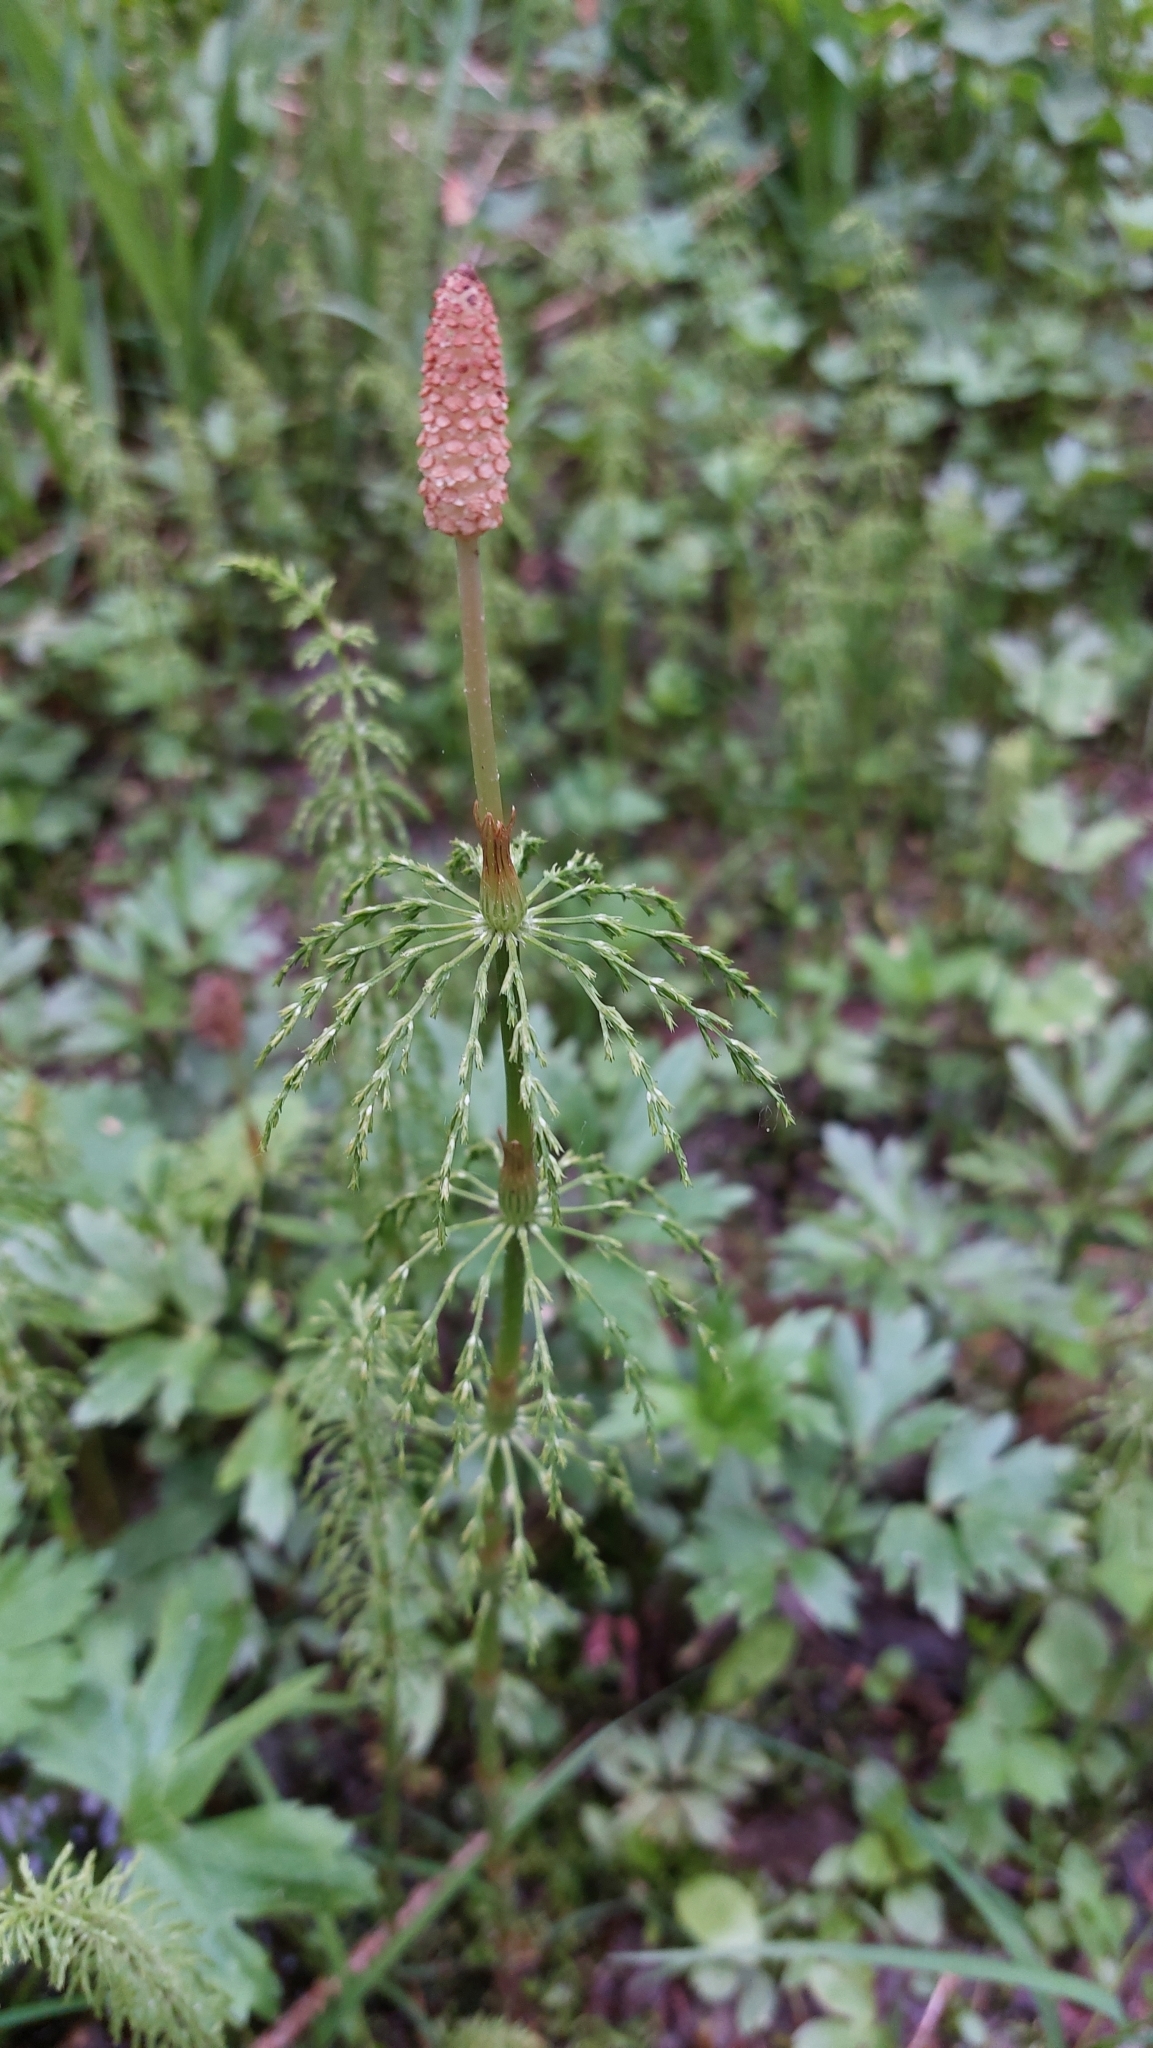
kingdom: Plantae
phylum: Tracheophyta
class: Polypodiopsida
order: Equisetales
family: Equisetaceae
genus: Equisetum
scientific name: Equisetum sylvaticum
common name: Wood horsetail
